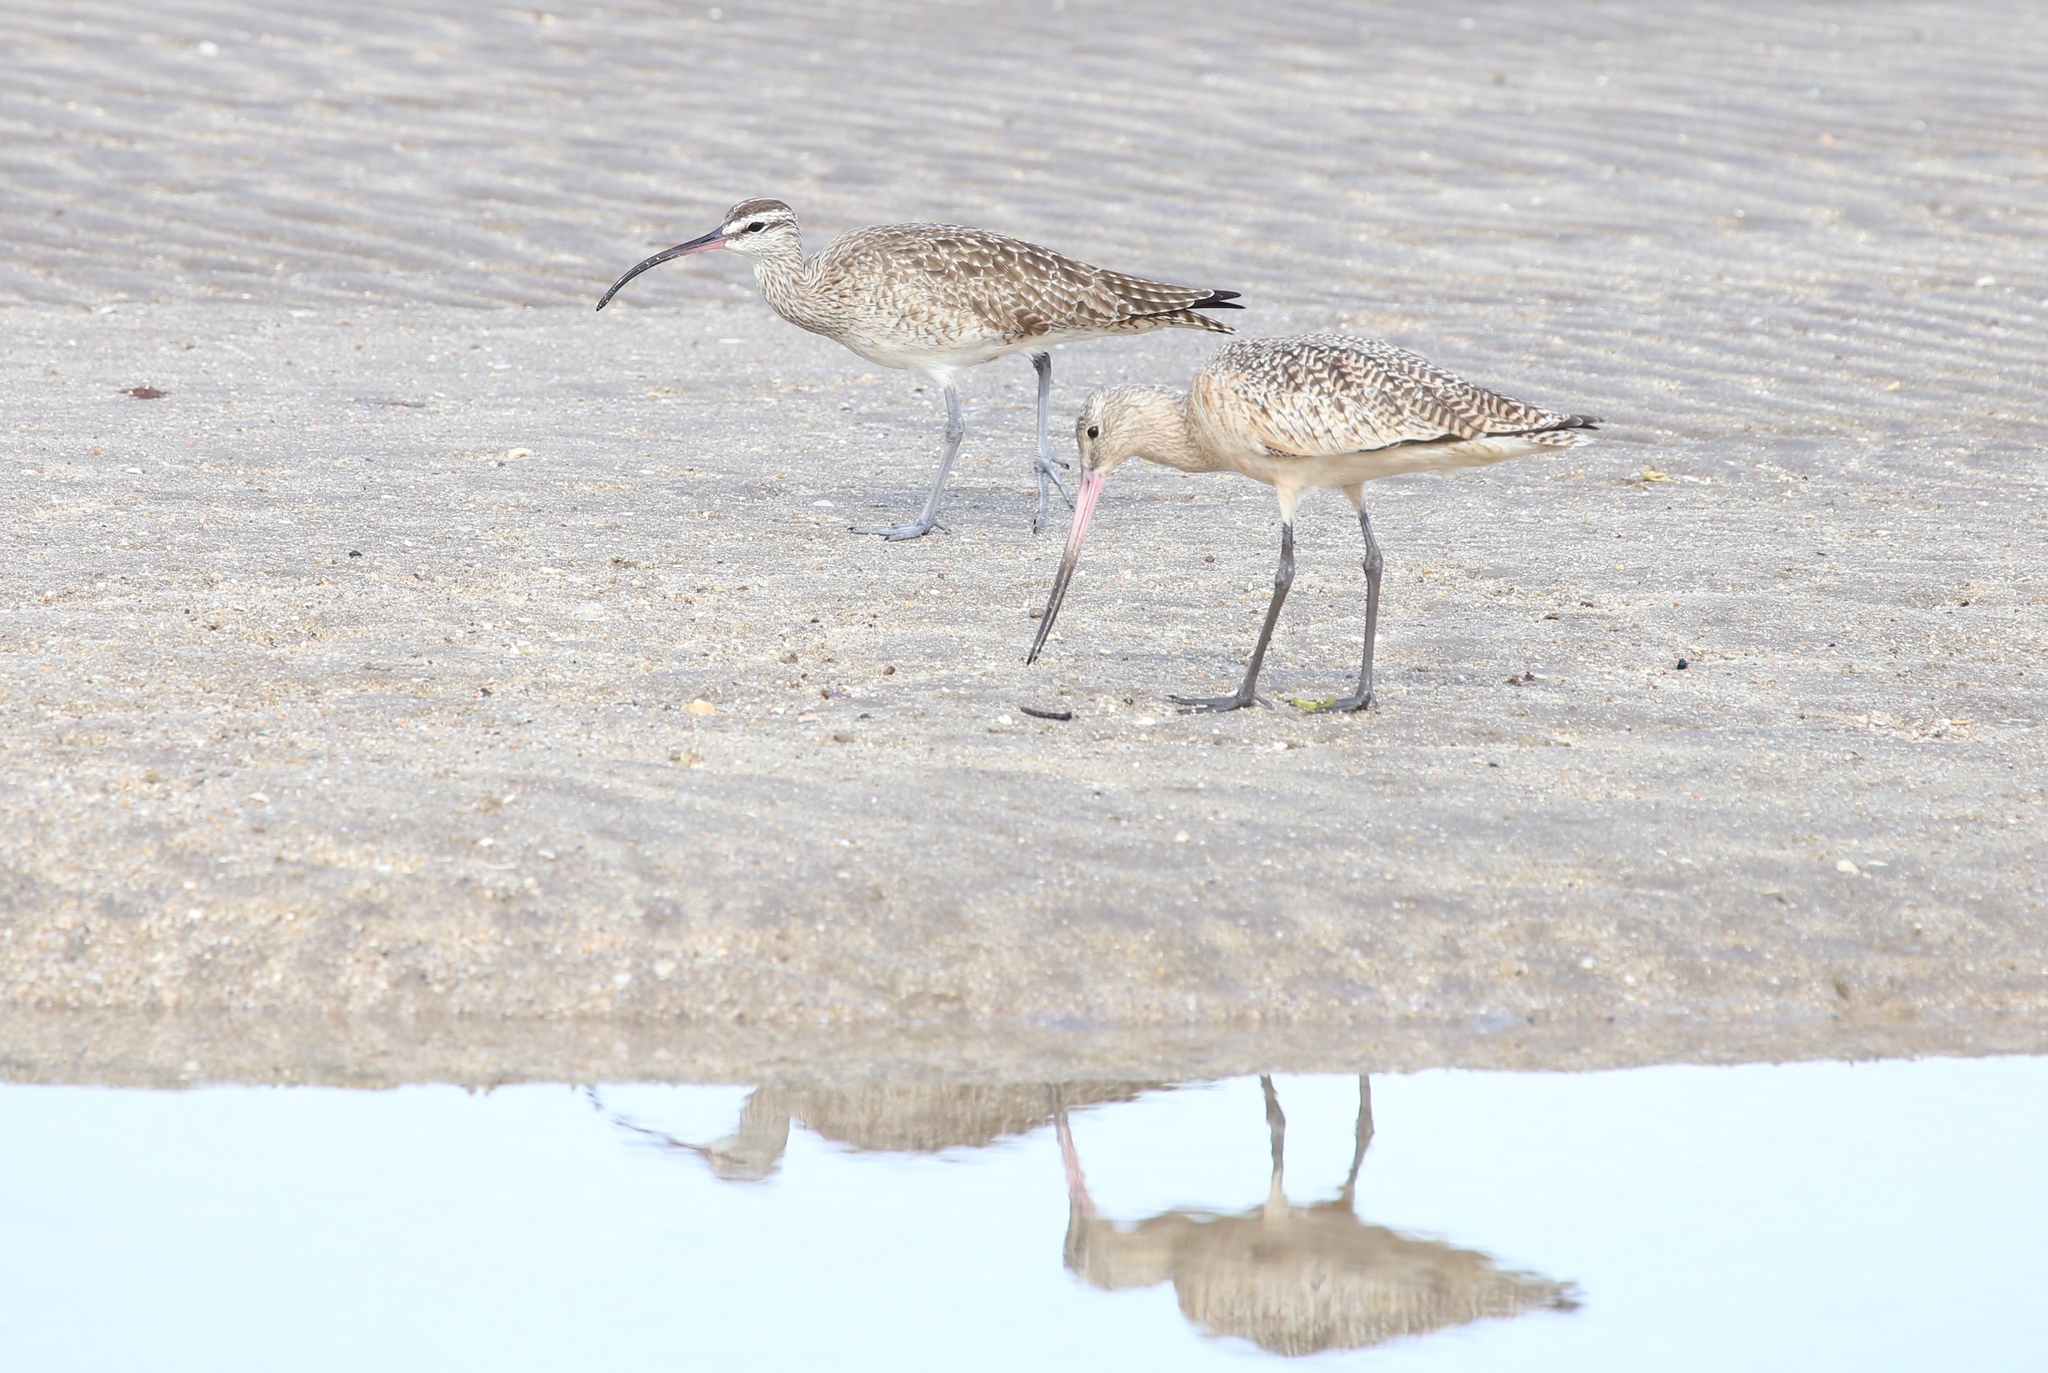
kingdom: Animalia
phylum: Chordata
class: Aves
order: Charadriiformes
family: Scolopacidae
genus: Numenius
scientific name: Numenius phaeopus
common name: Whimbrel
